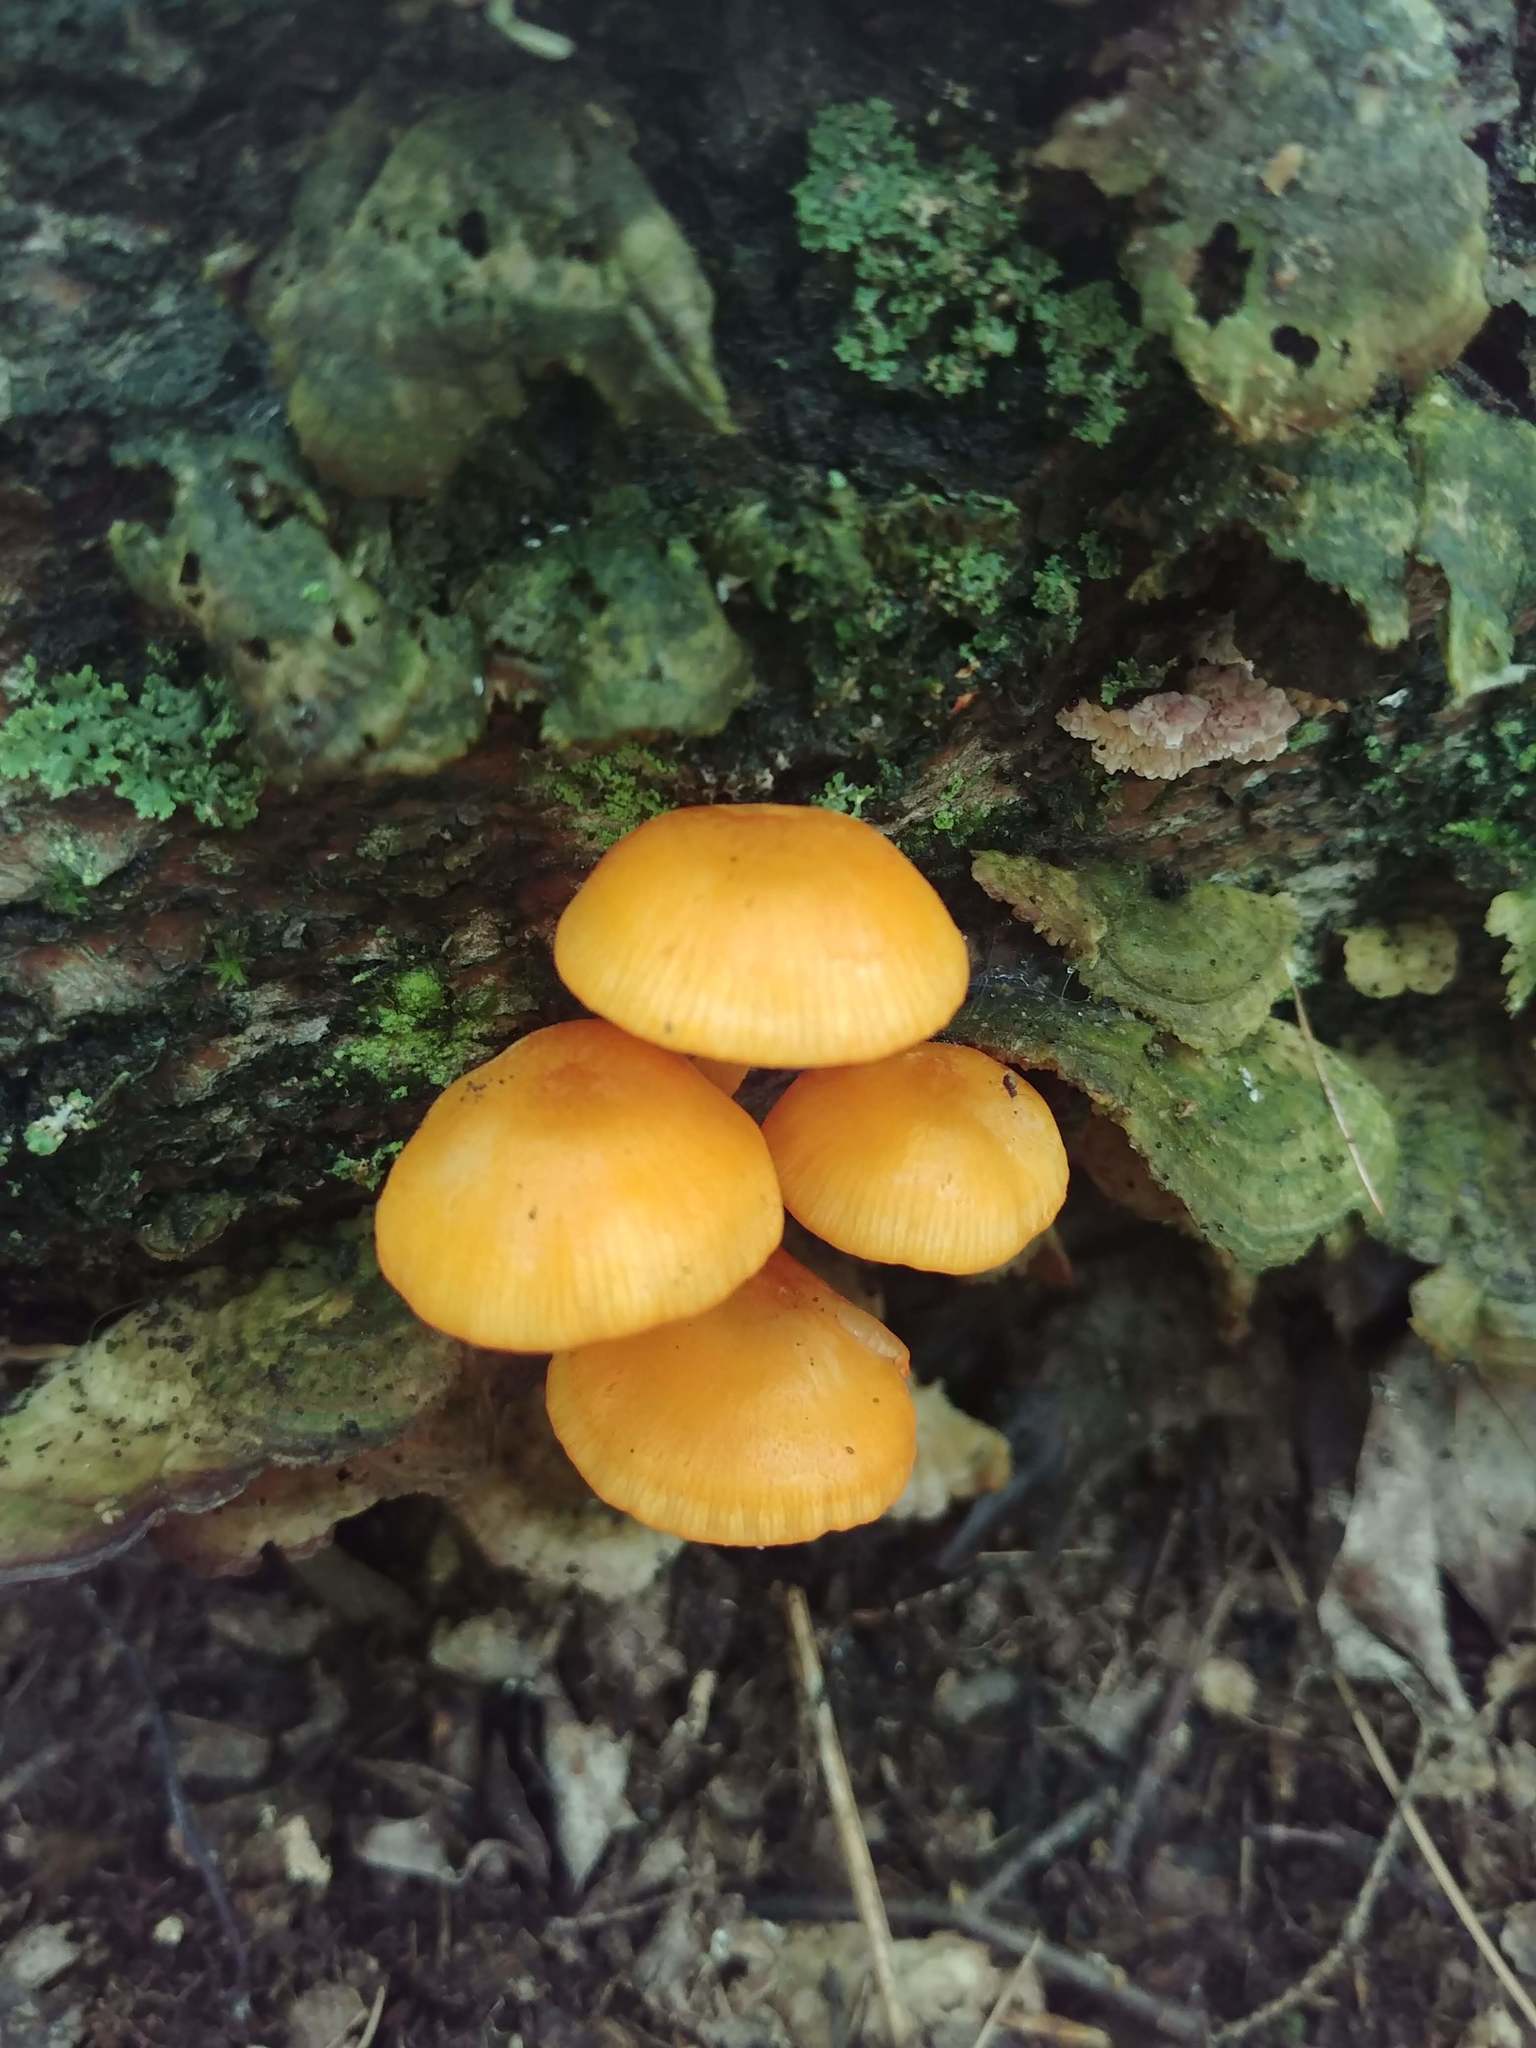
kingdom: Fungi
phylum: Basidiomycota
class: Agaricomycetes
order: Agaricales
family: Mycenaceae
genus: Mycena
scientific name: Mycena leaiana
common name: Orange mycena
